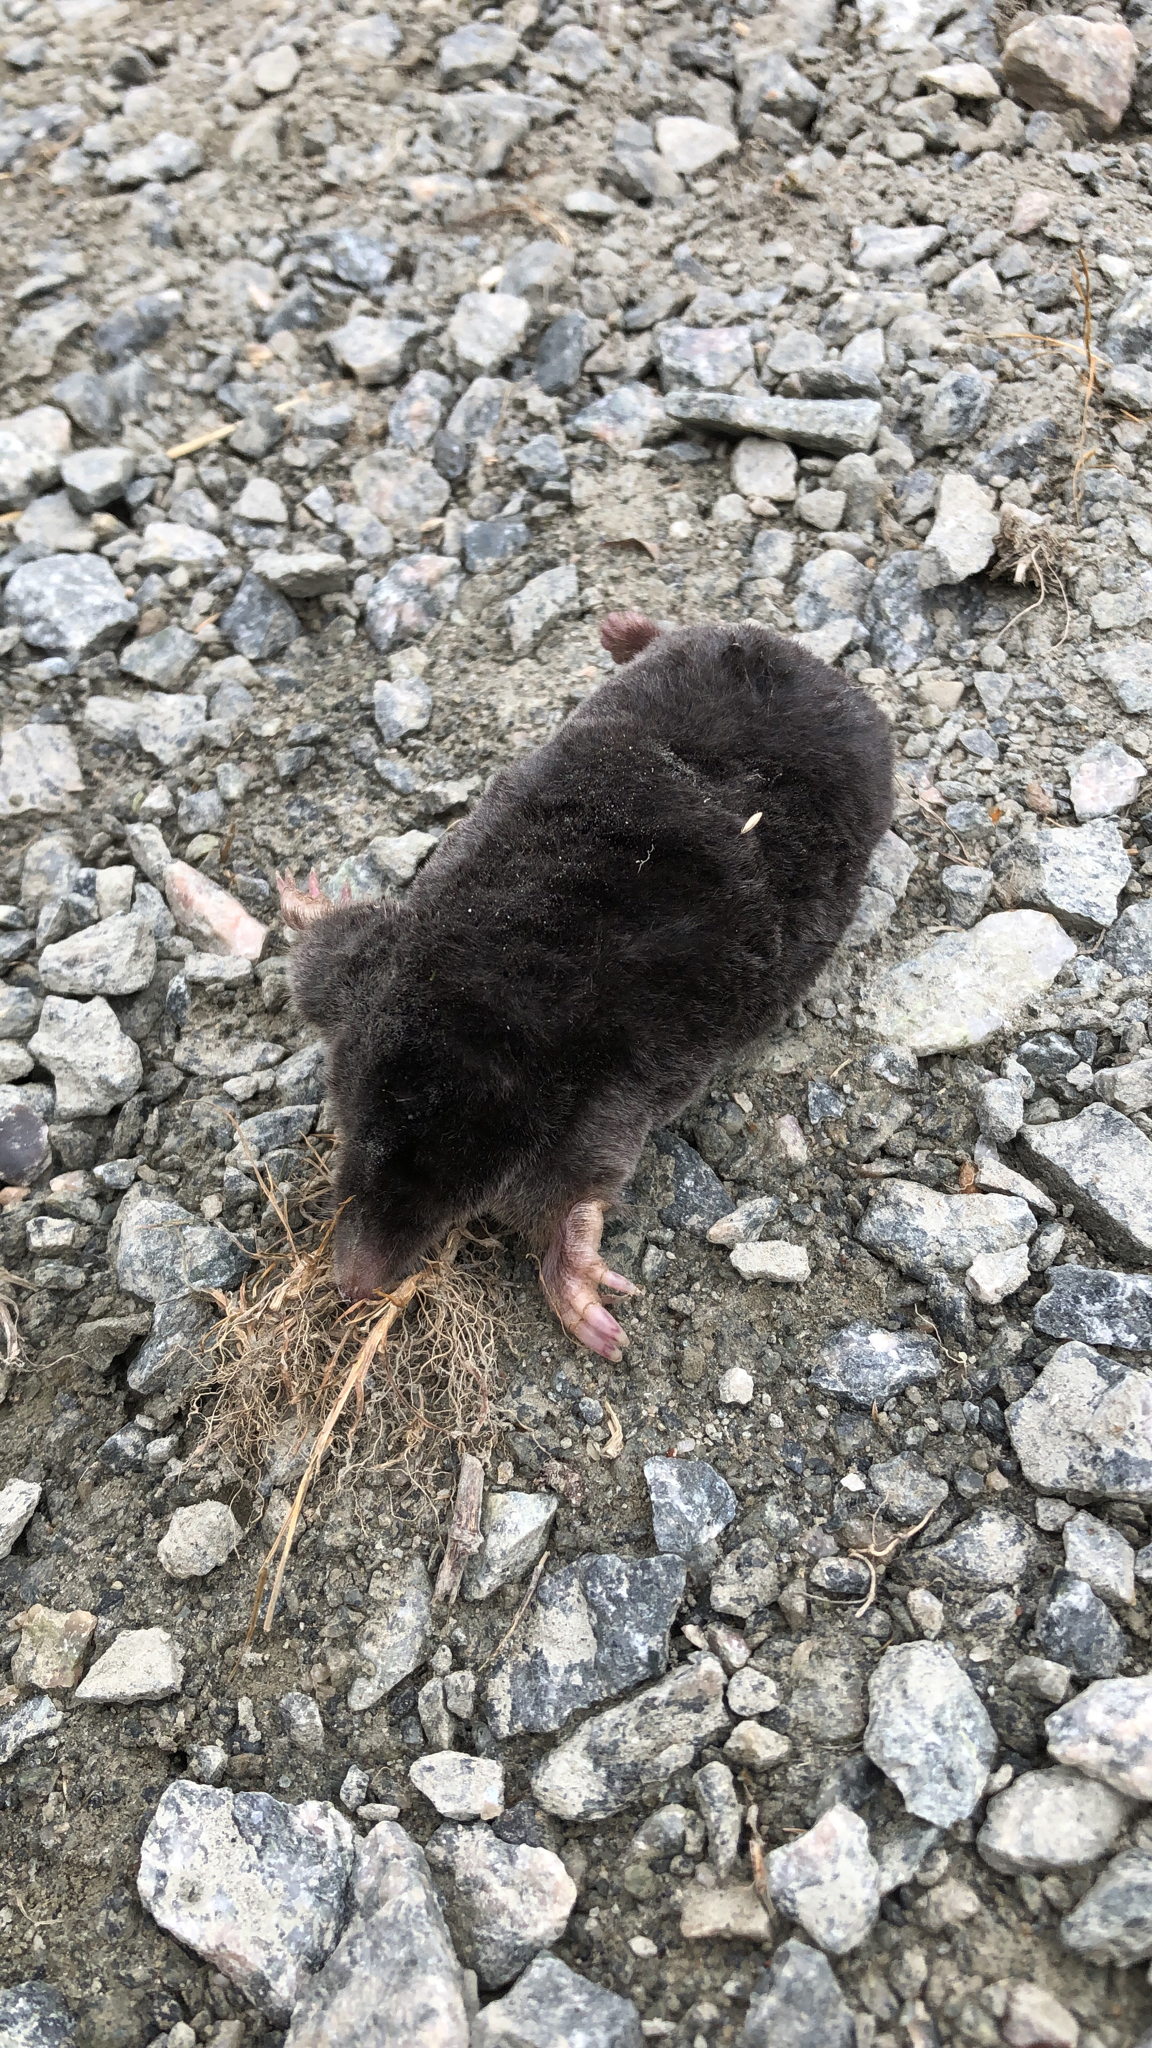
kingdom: Animalia
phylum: Chordata
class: Mammalia
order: Soricomorpha
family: Talpidae
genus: Talpa
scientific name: Talpa europaea
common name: European mole
